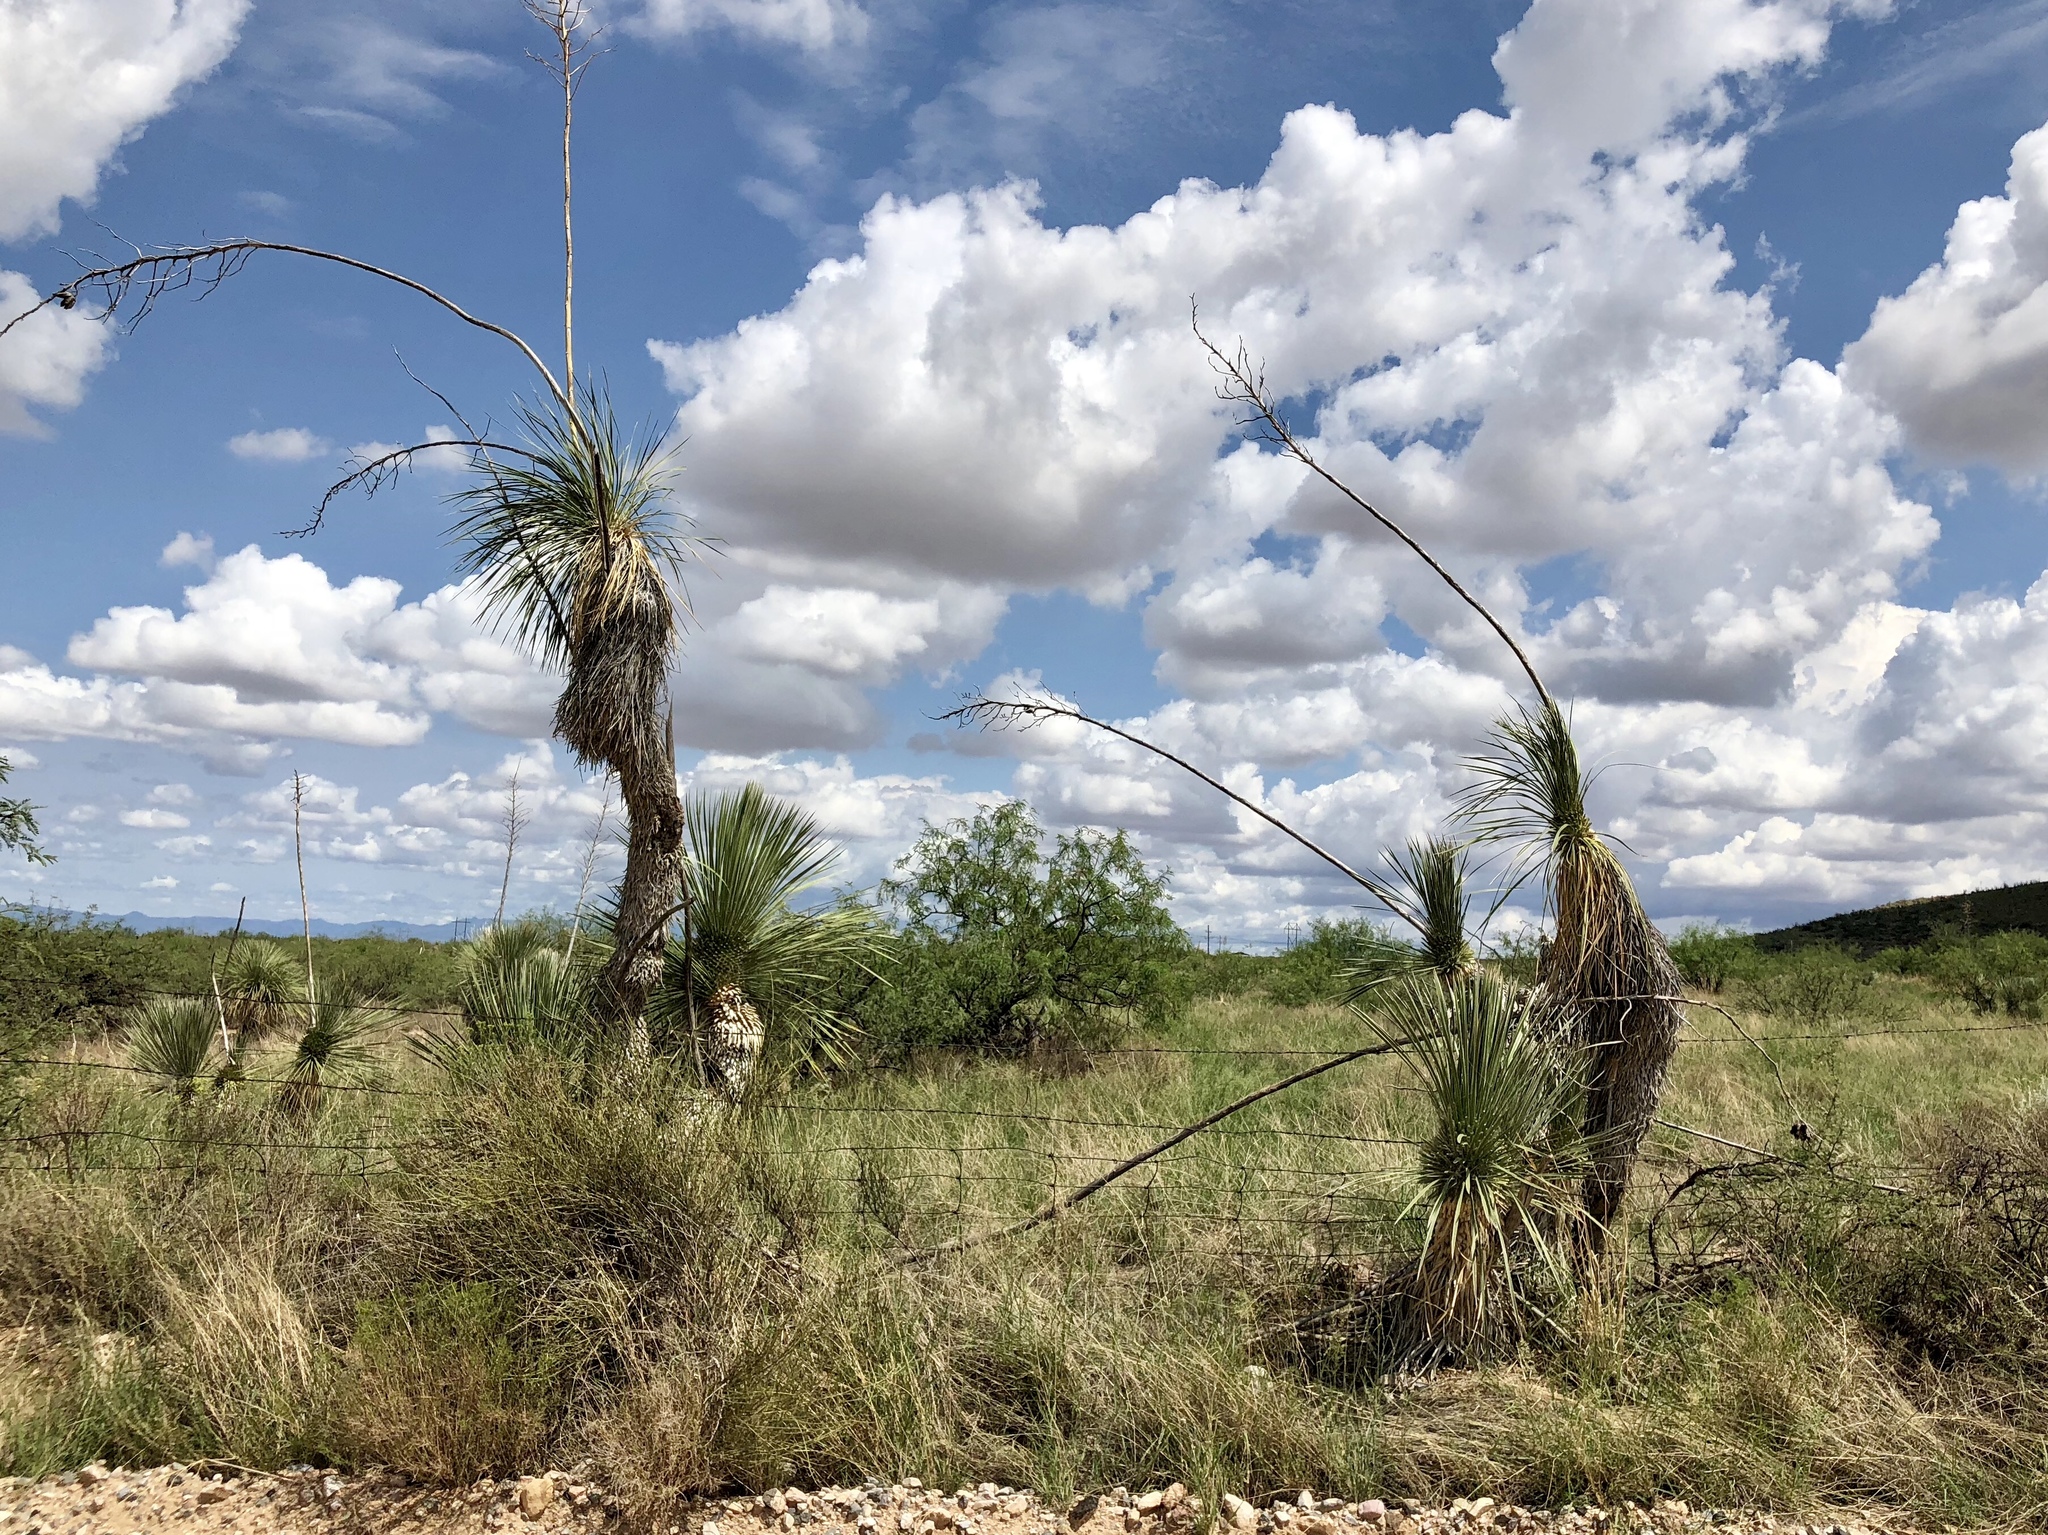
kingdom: Plantae
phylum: Tracheophyta
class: Liliopsida
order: Asparagales
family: Asparagaceae
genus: Yucca
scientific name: Yucca elata
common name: Palmella
